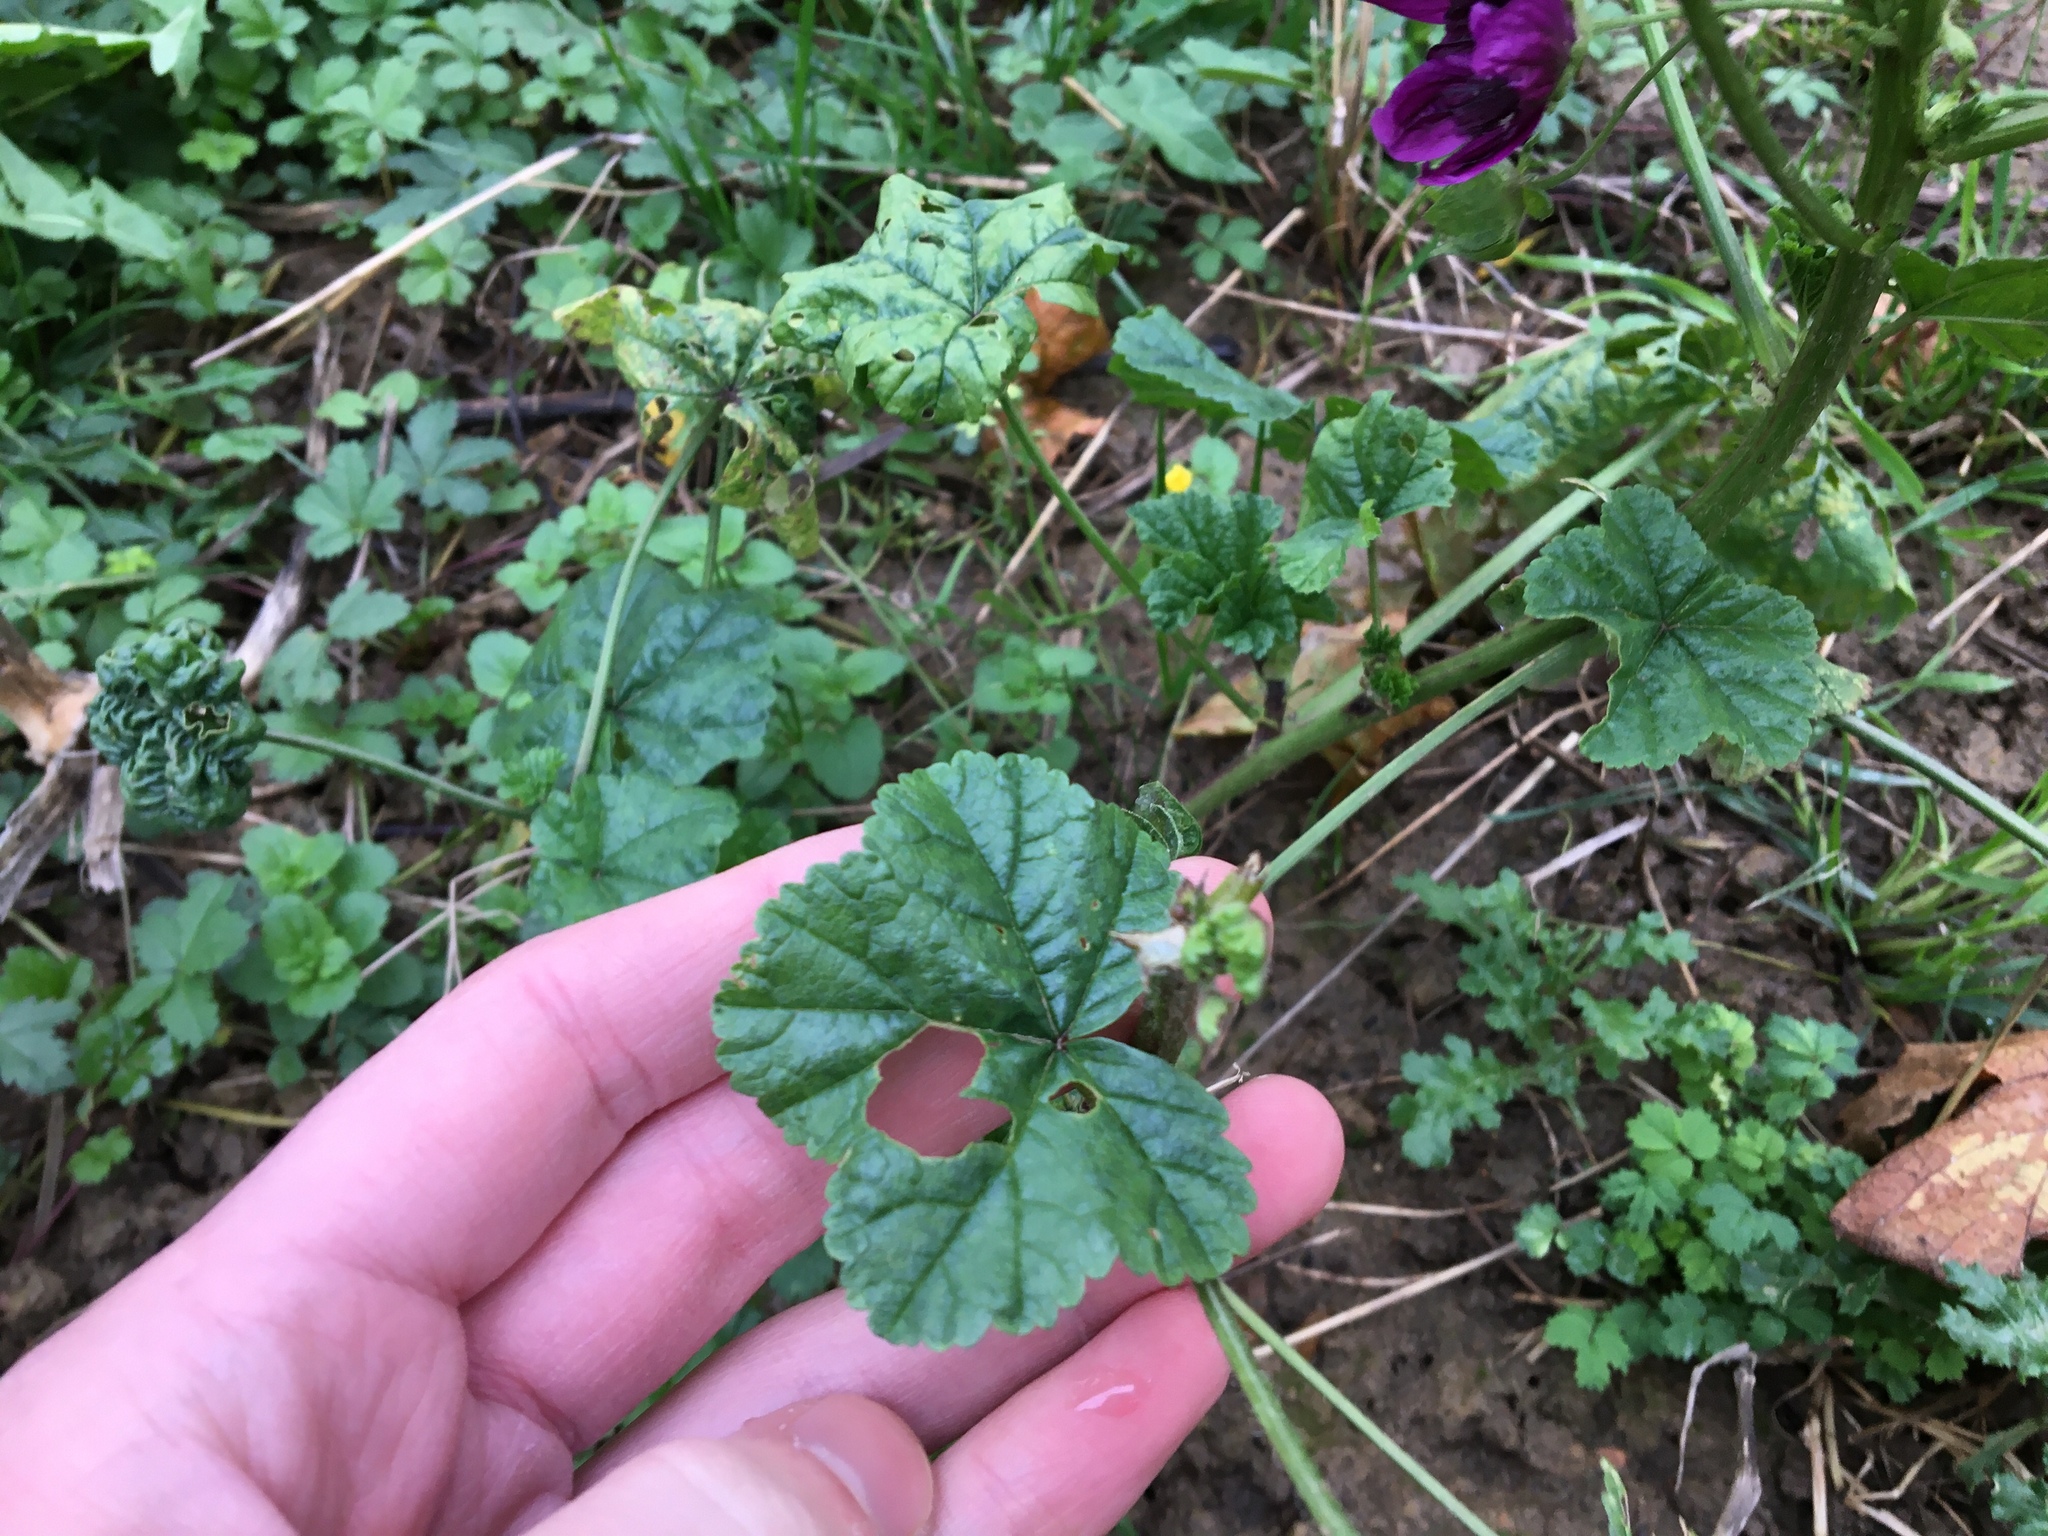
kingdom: Plantae
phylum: Tracheophyta
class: Magnoliopsida
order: Malvales
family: Malvaceae
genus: Malva
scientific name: Malva sylvestris
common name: Common mallow
